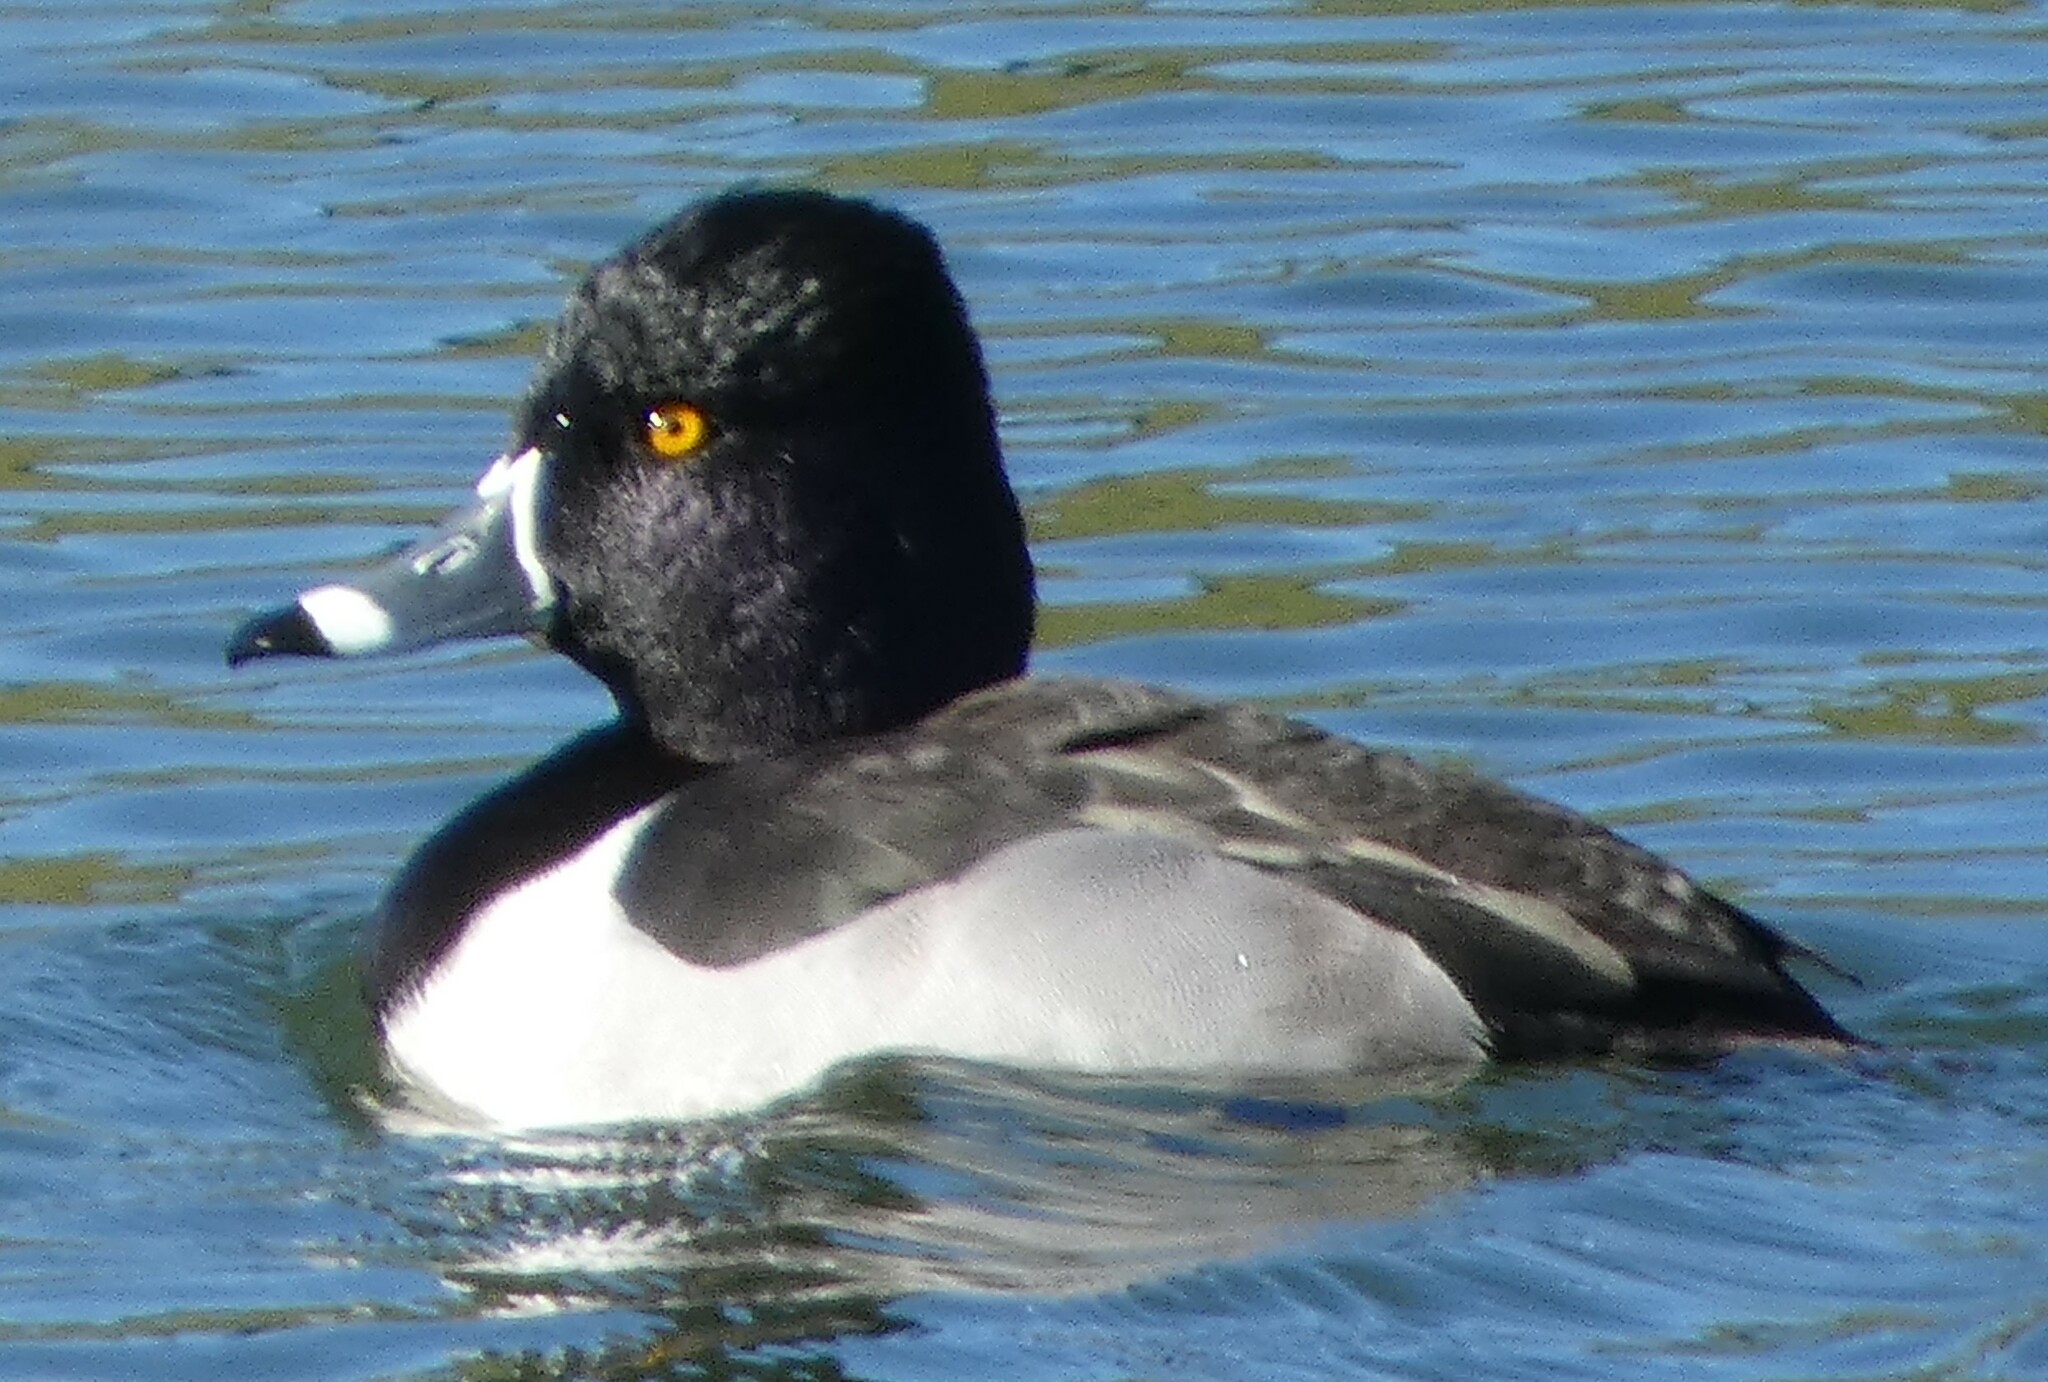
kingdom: Animalia
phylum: Chordata
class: Aves
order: Anseriformes
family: Anatidae
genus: Aythya
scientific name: Aythya collaris
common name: Ring-necked duck
